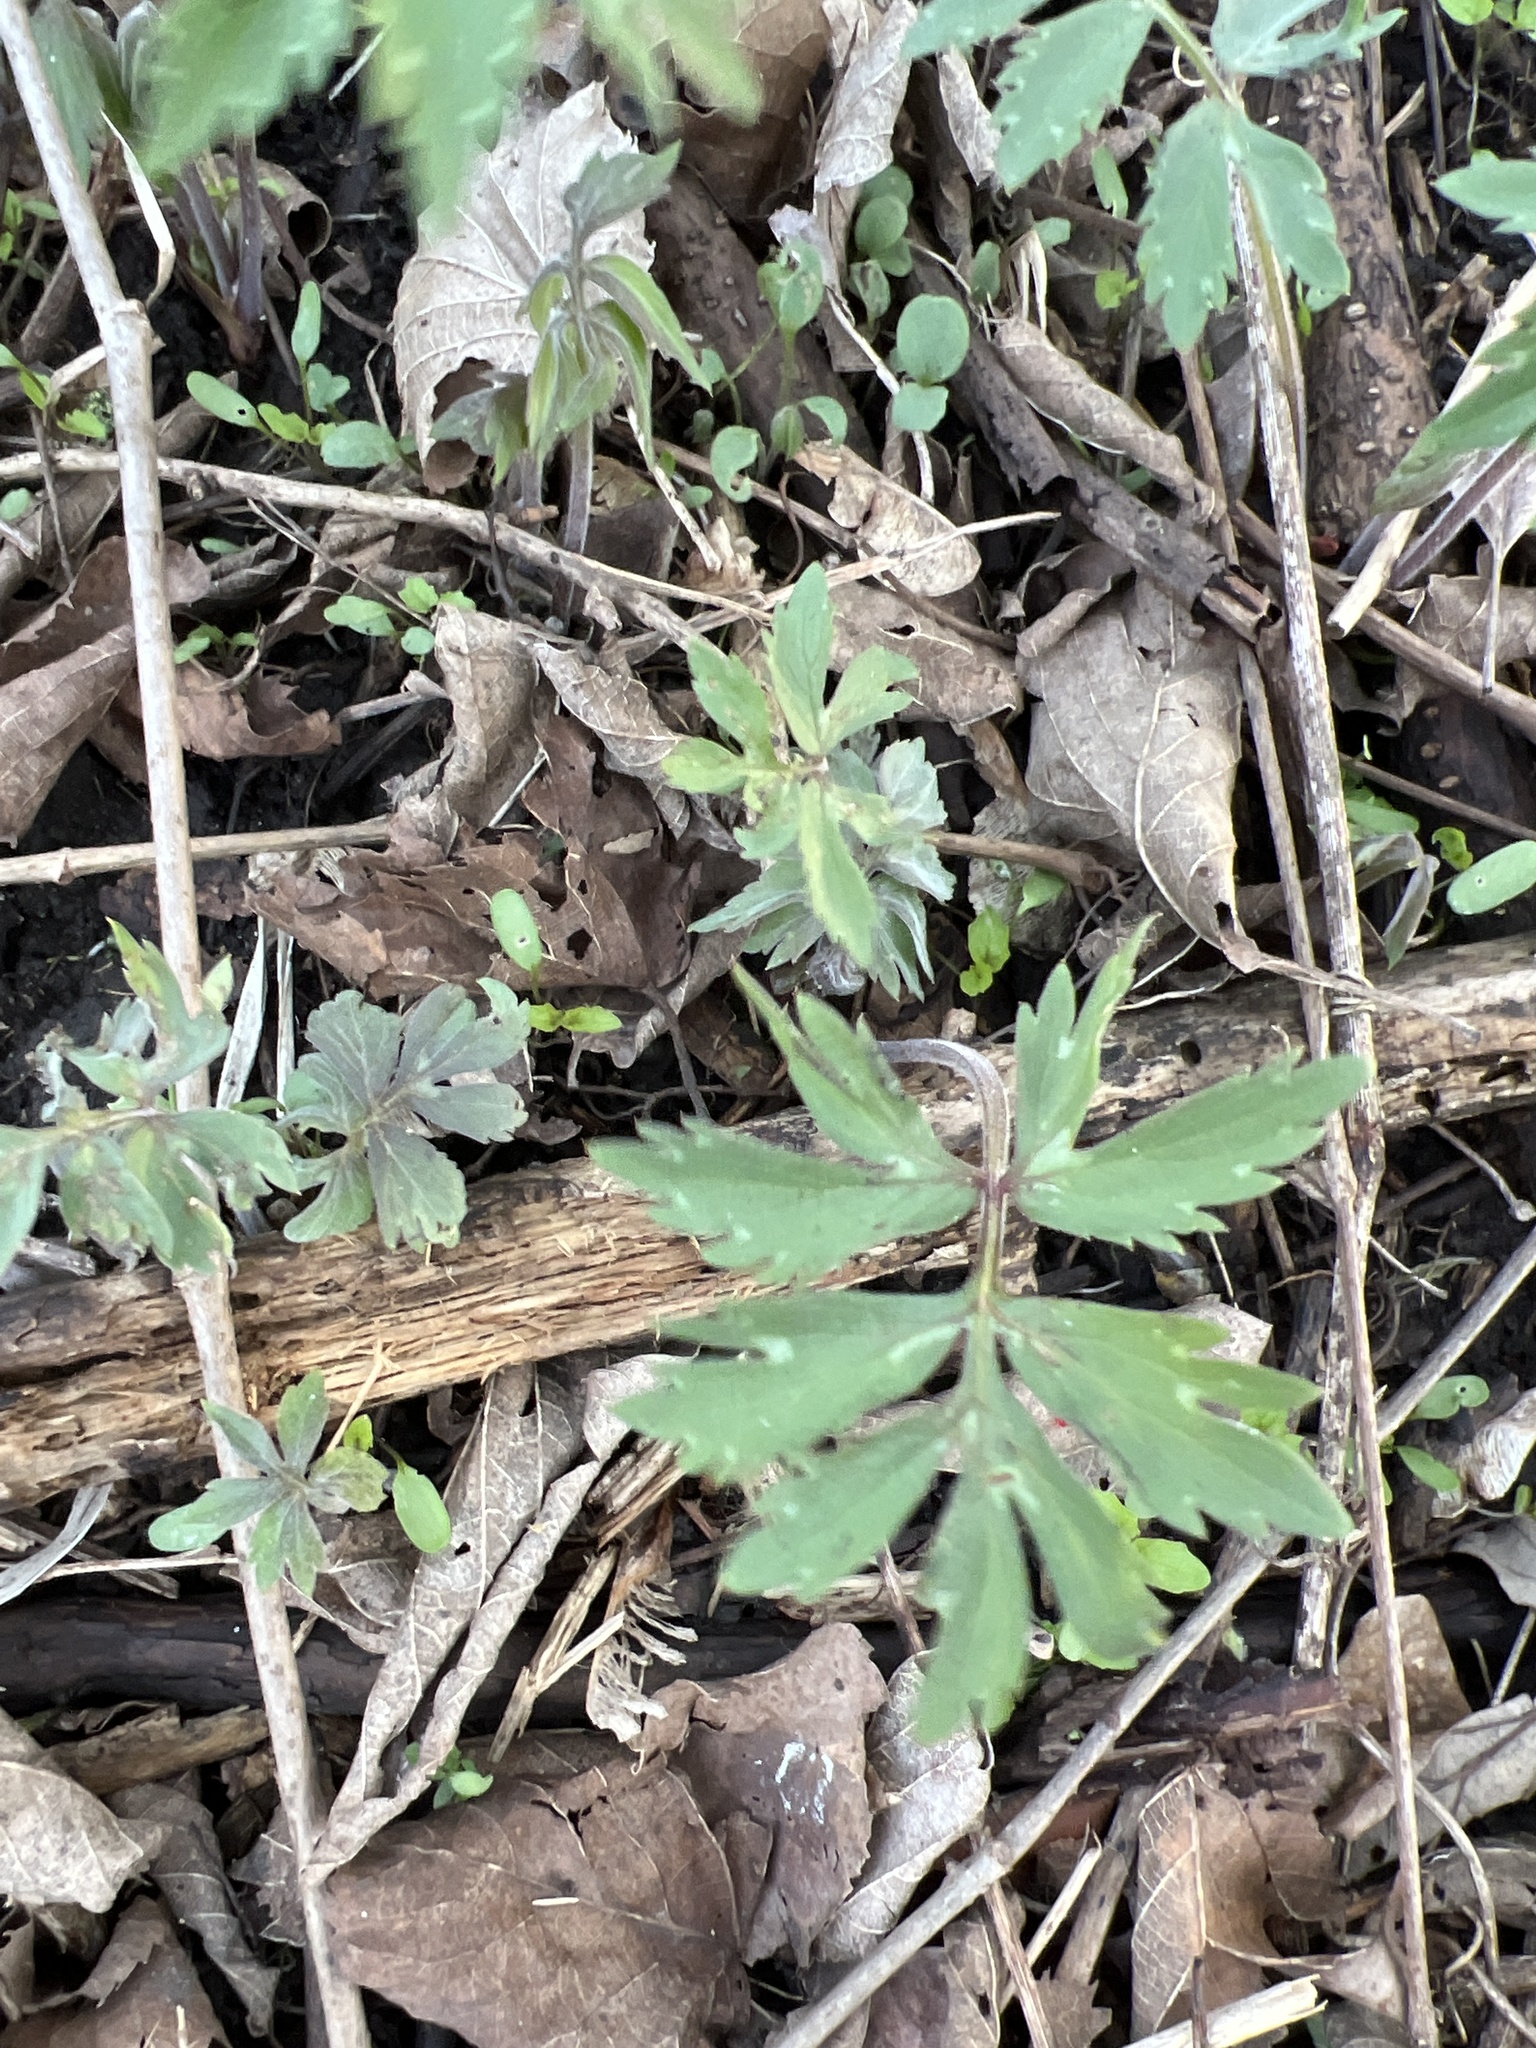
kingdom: Plantae
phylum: Tracheophyta
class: Magnoliopsida
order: Boraginales
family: Hydrophyllaceae
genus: Hydrophyllum
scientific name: Hydrophyllum virginianum
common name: Virginia waterleaf
